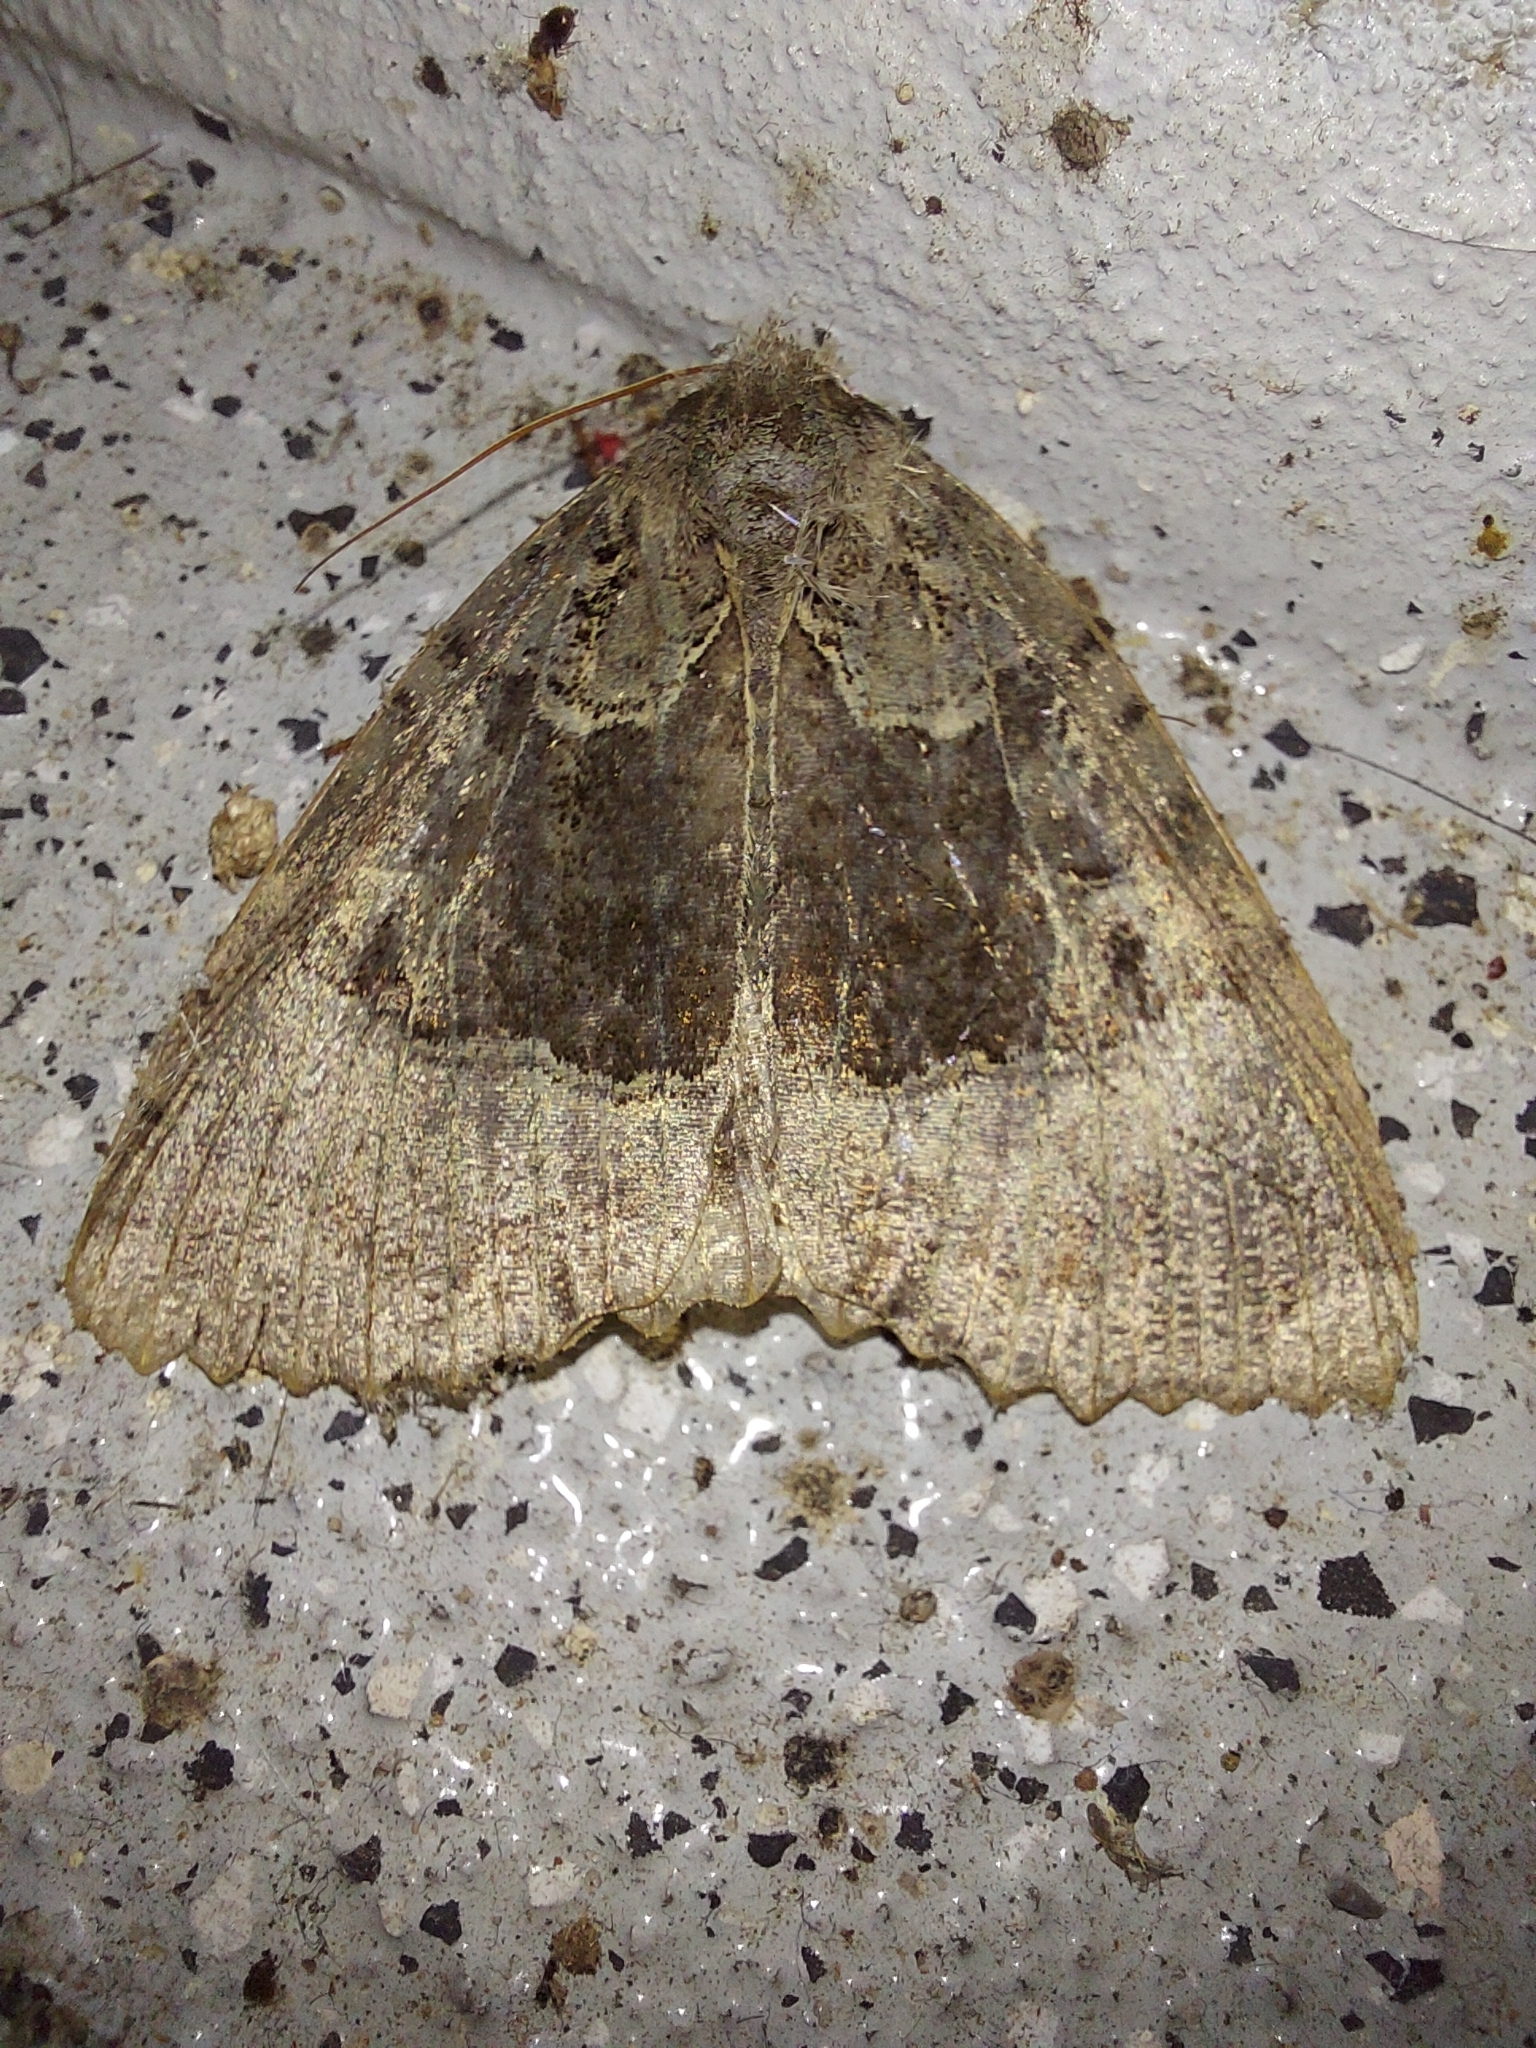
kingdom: Animalia
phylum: Arthropoda
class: Insecta
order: Lepidoptera
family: Noctuidae
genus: Mormo
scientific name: Mormo maura
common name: Old lady
